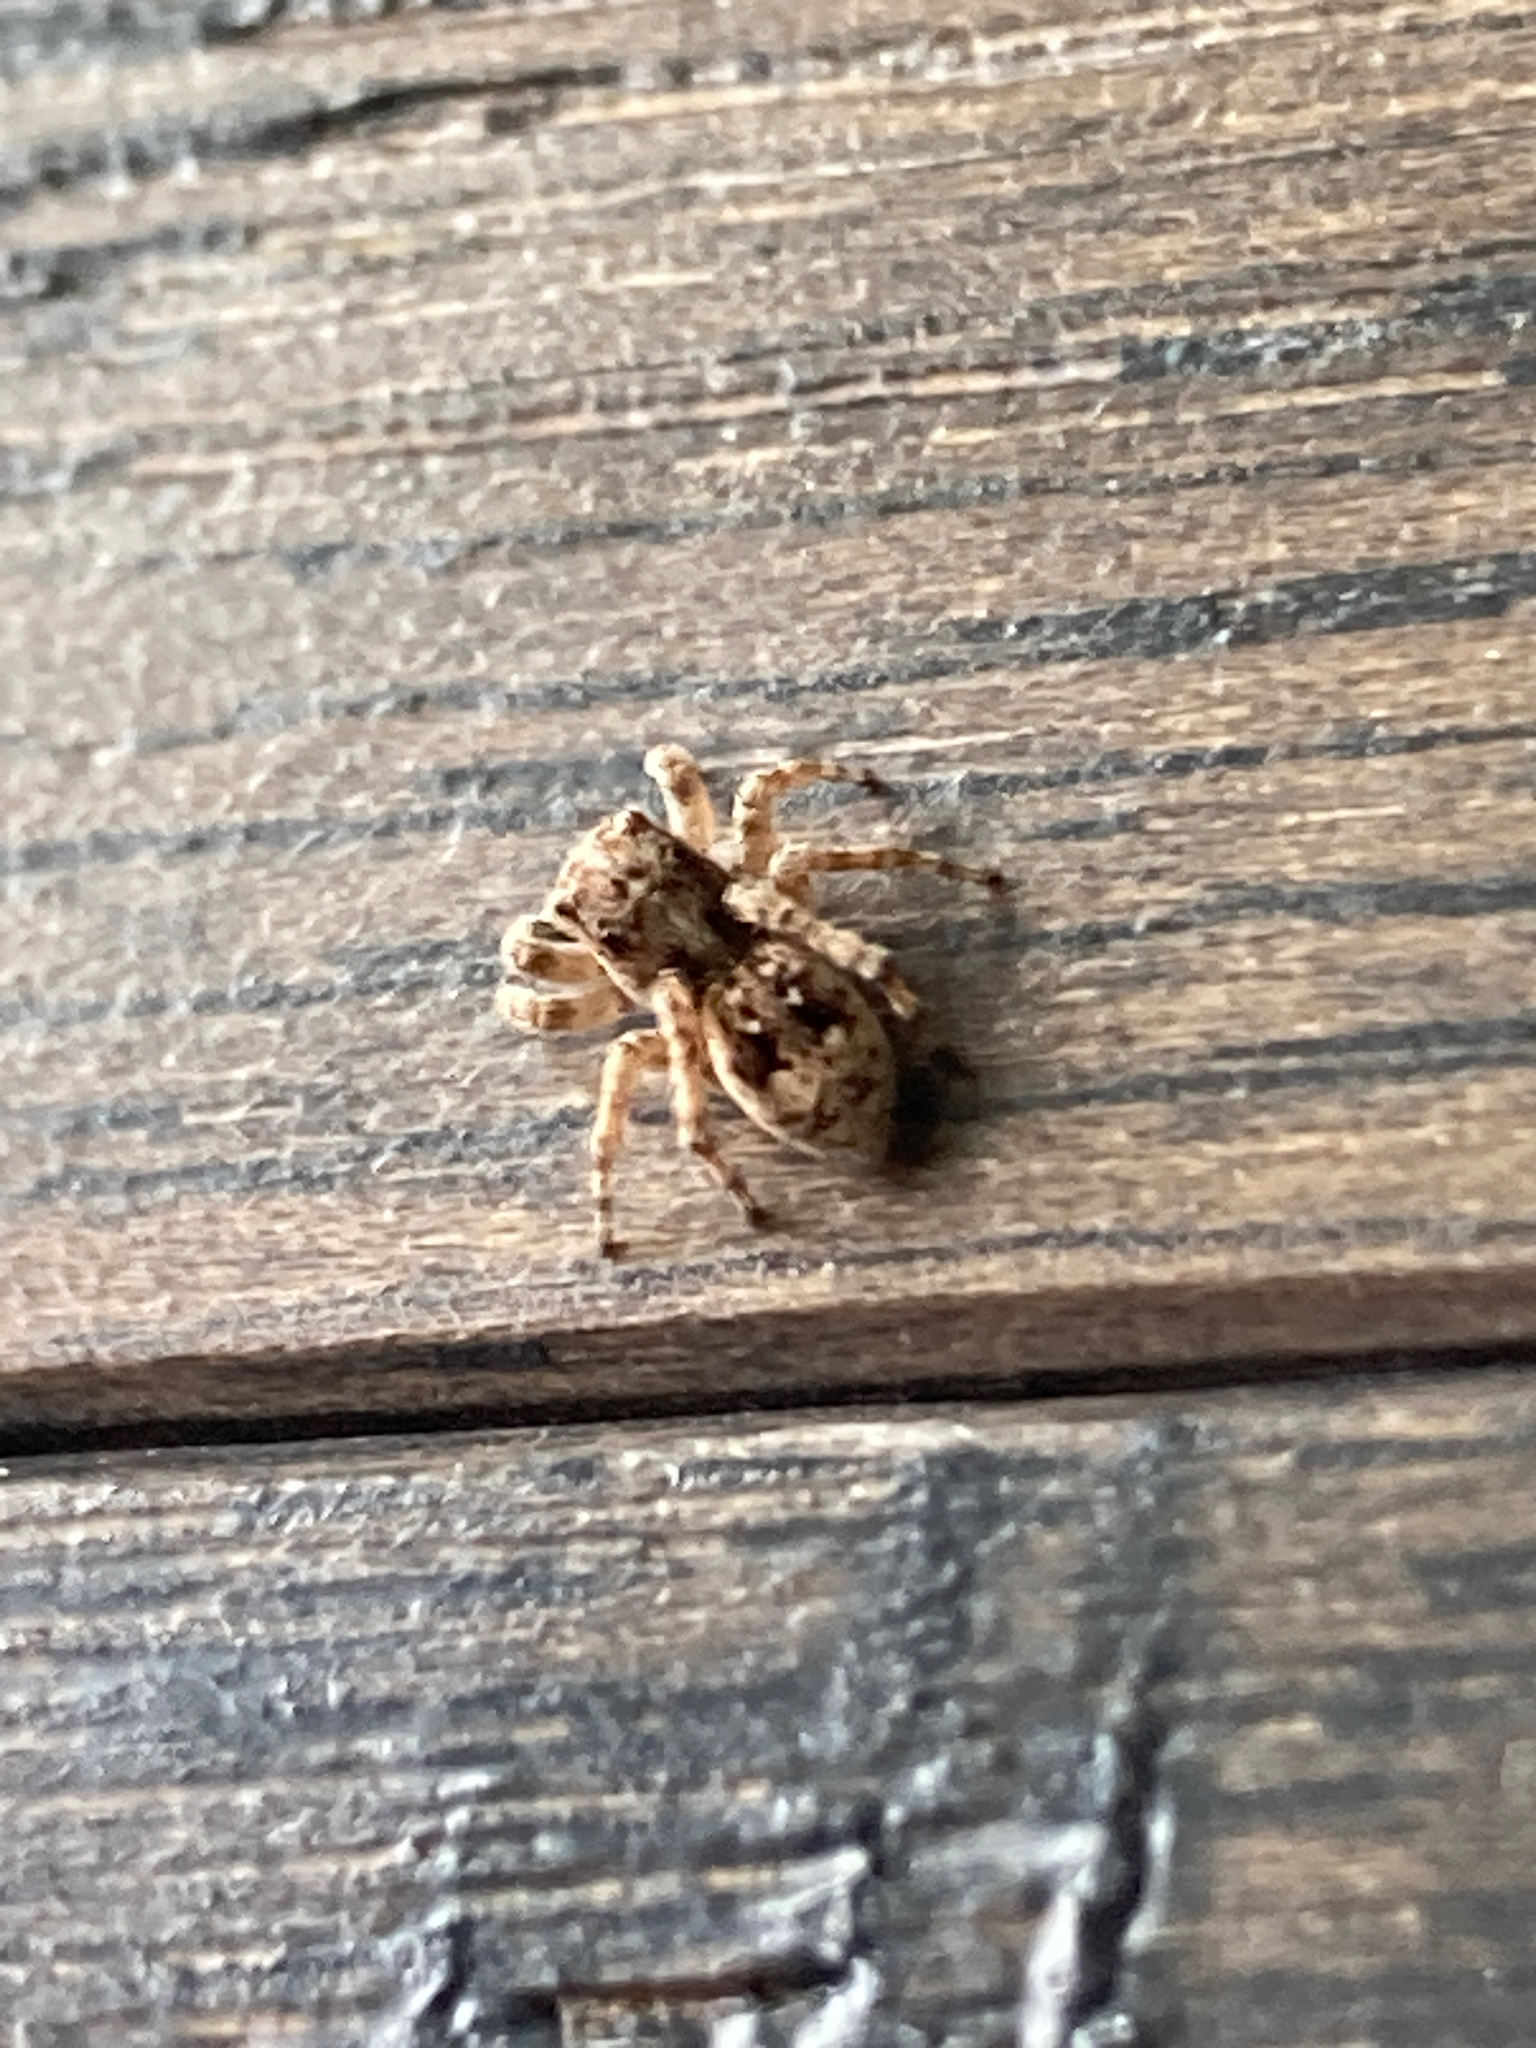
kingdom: Animalia
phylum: Arthropoda
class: Arachnida
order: Araneae
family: Salticidae
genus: Attulus
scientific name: Attulus fasciger
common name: Asiatic wall jumping spider
